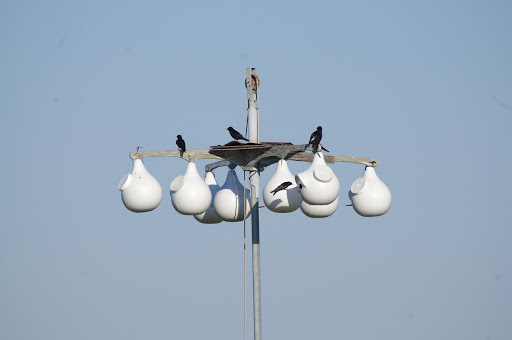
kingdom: Animalia
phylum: Chordata
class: Aves
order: Passeriformes
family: Hirundinidae
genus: Progne
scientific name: Progne subis
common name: Purple martin
